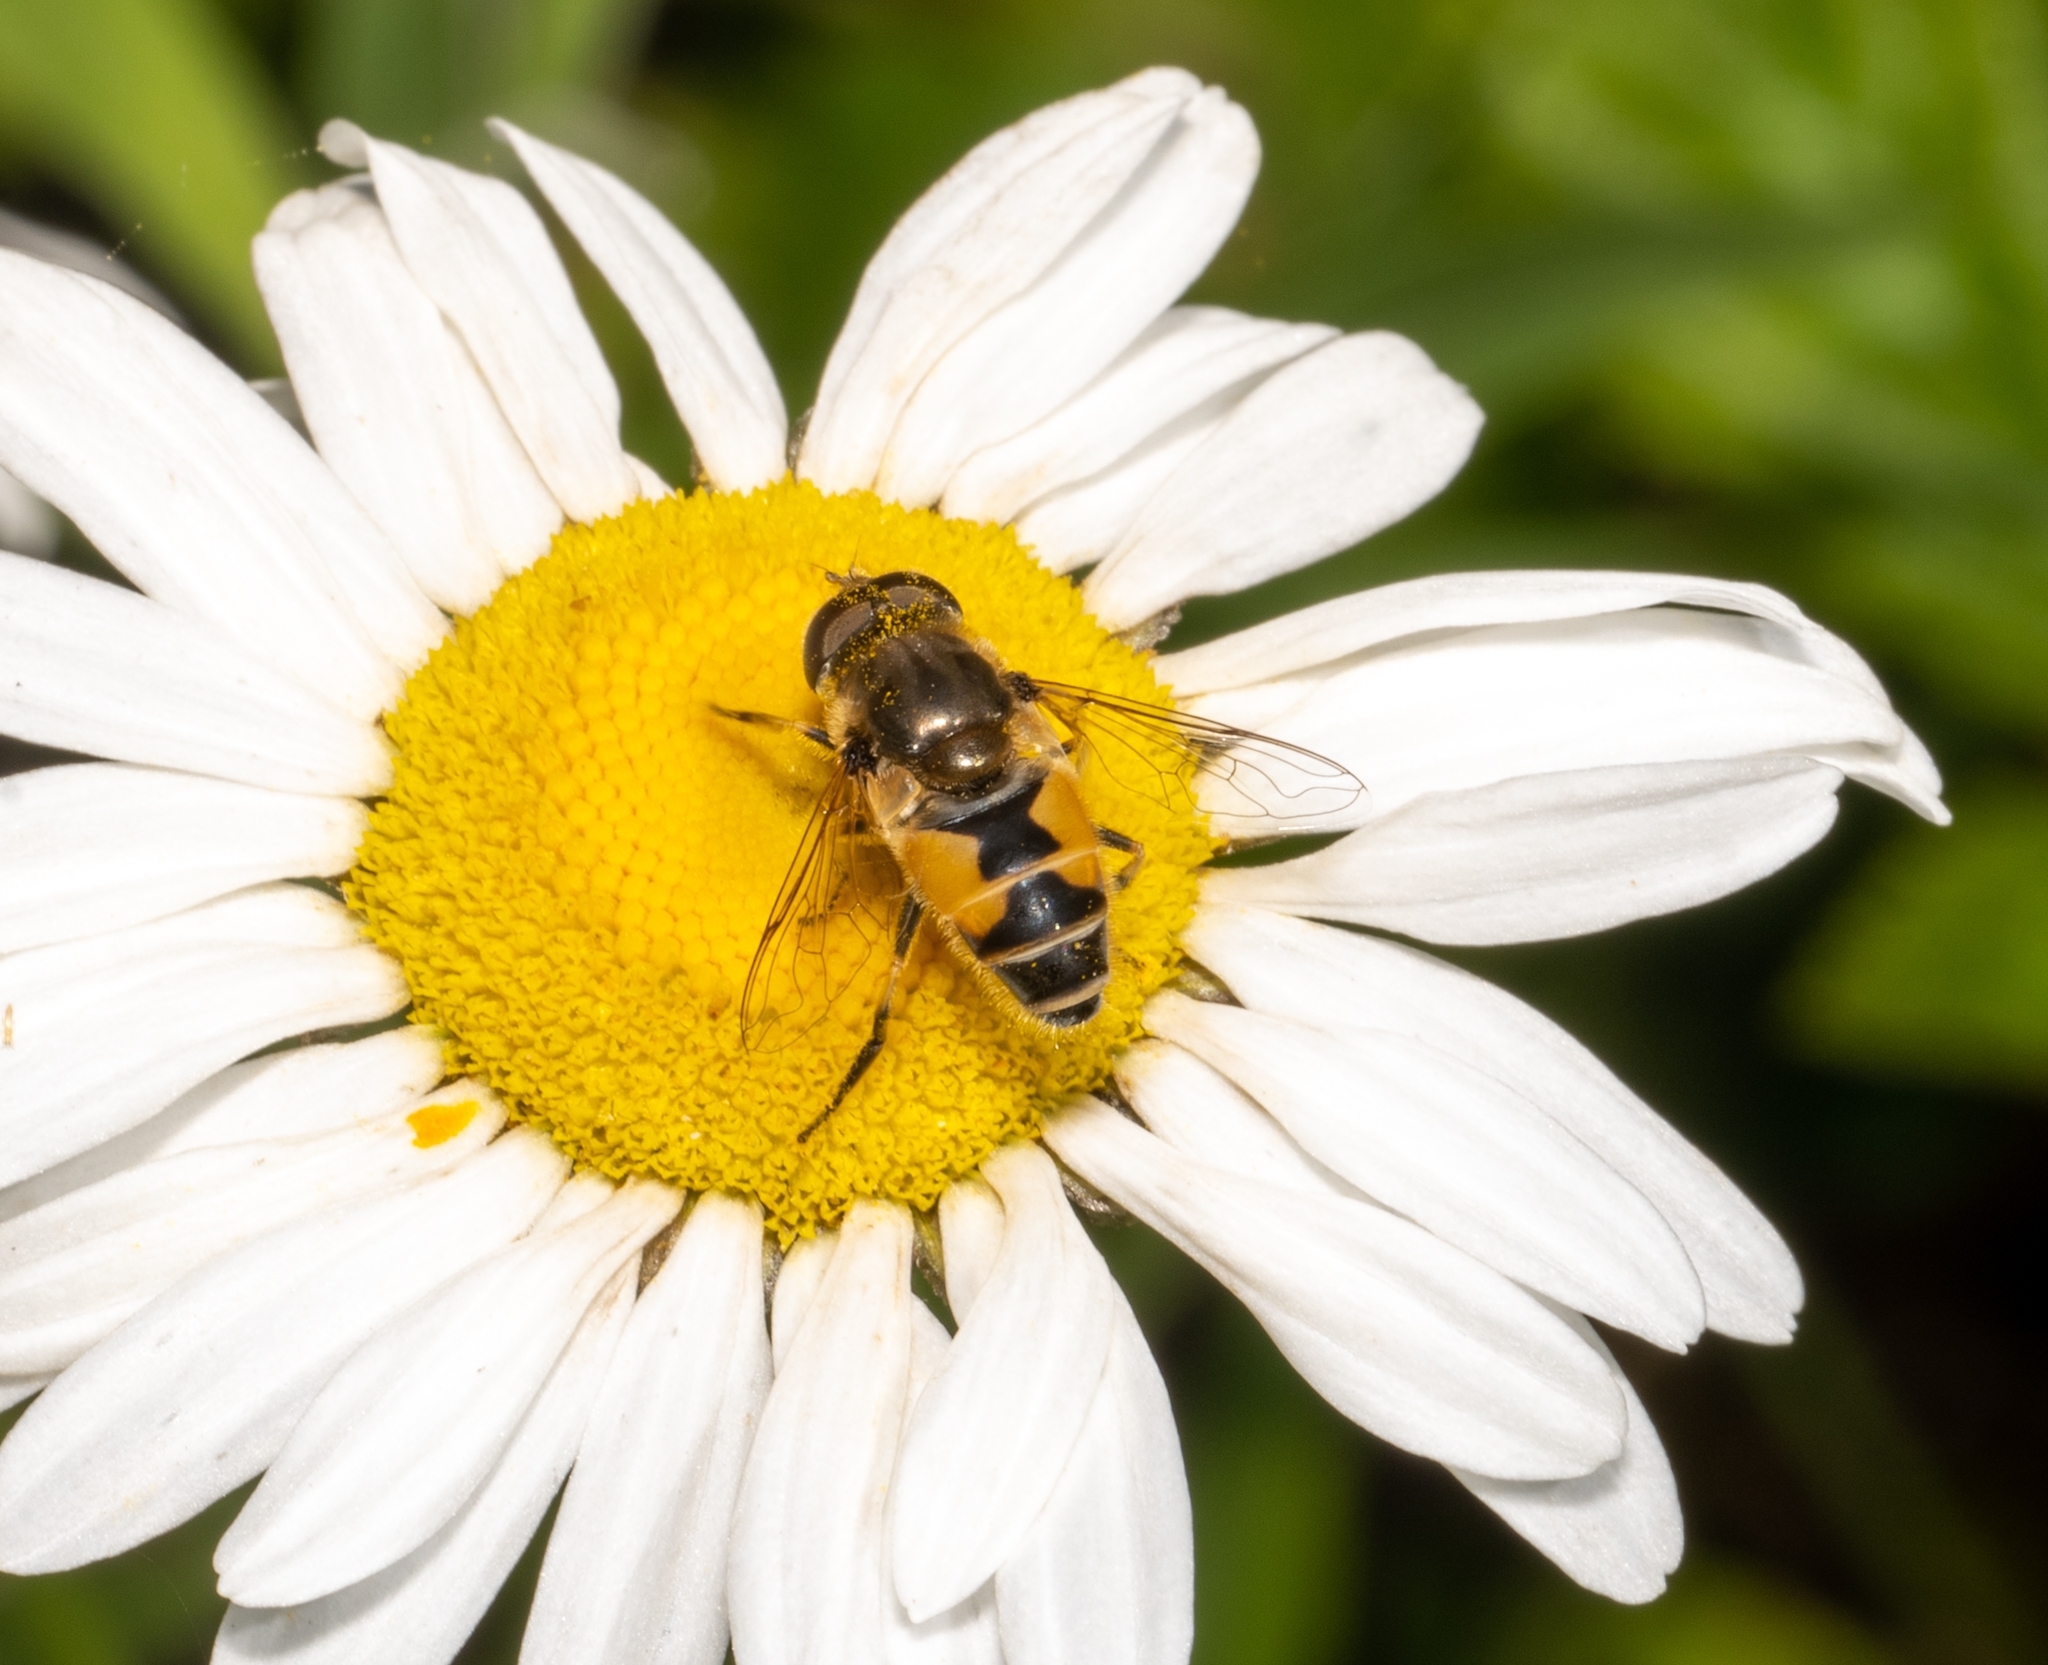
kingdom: Animalia
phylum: Arthropoda
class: Insecta
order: Diptera
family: Syrphidae
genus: Eristalis
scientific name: Eristalis arbustorum
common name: Hover fly
